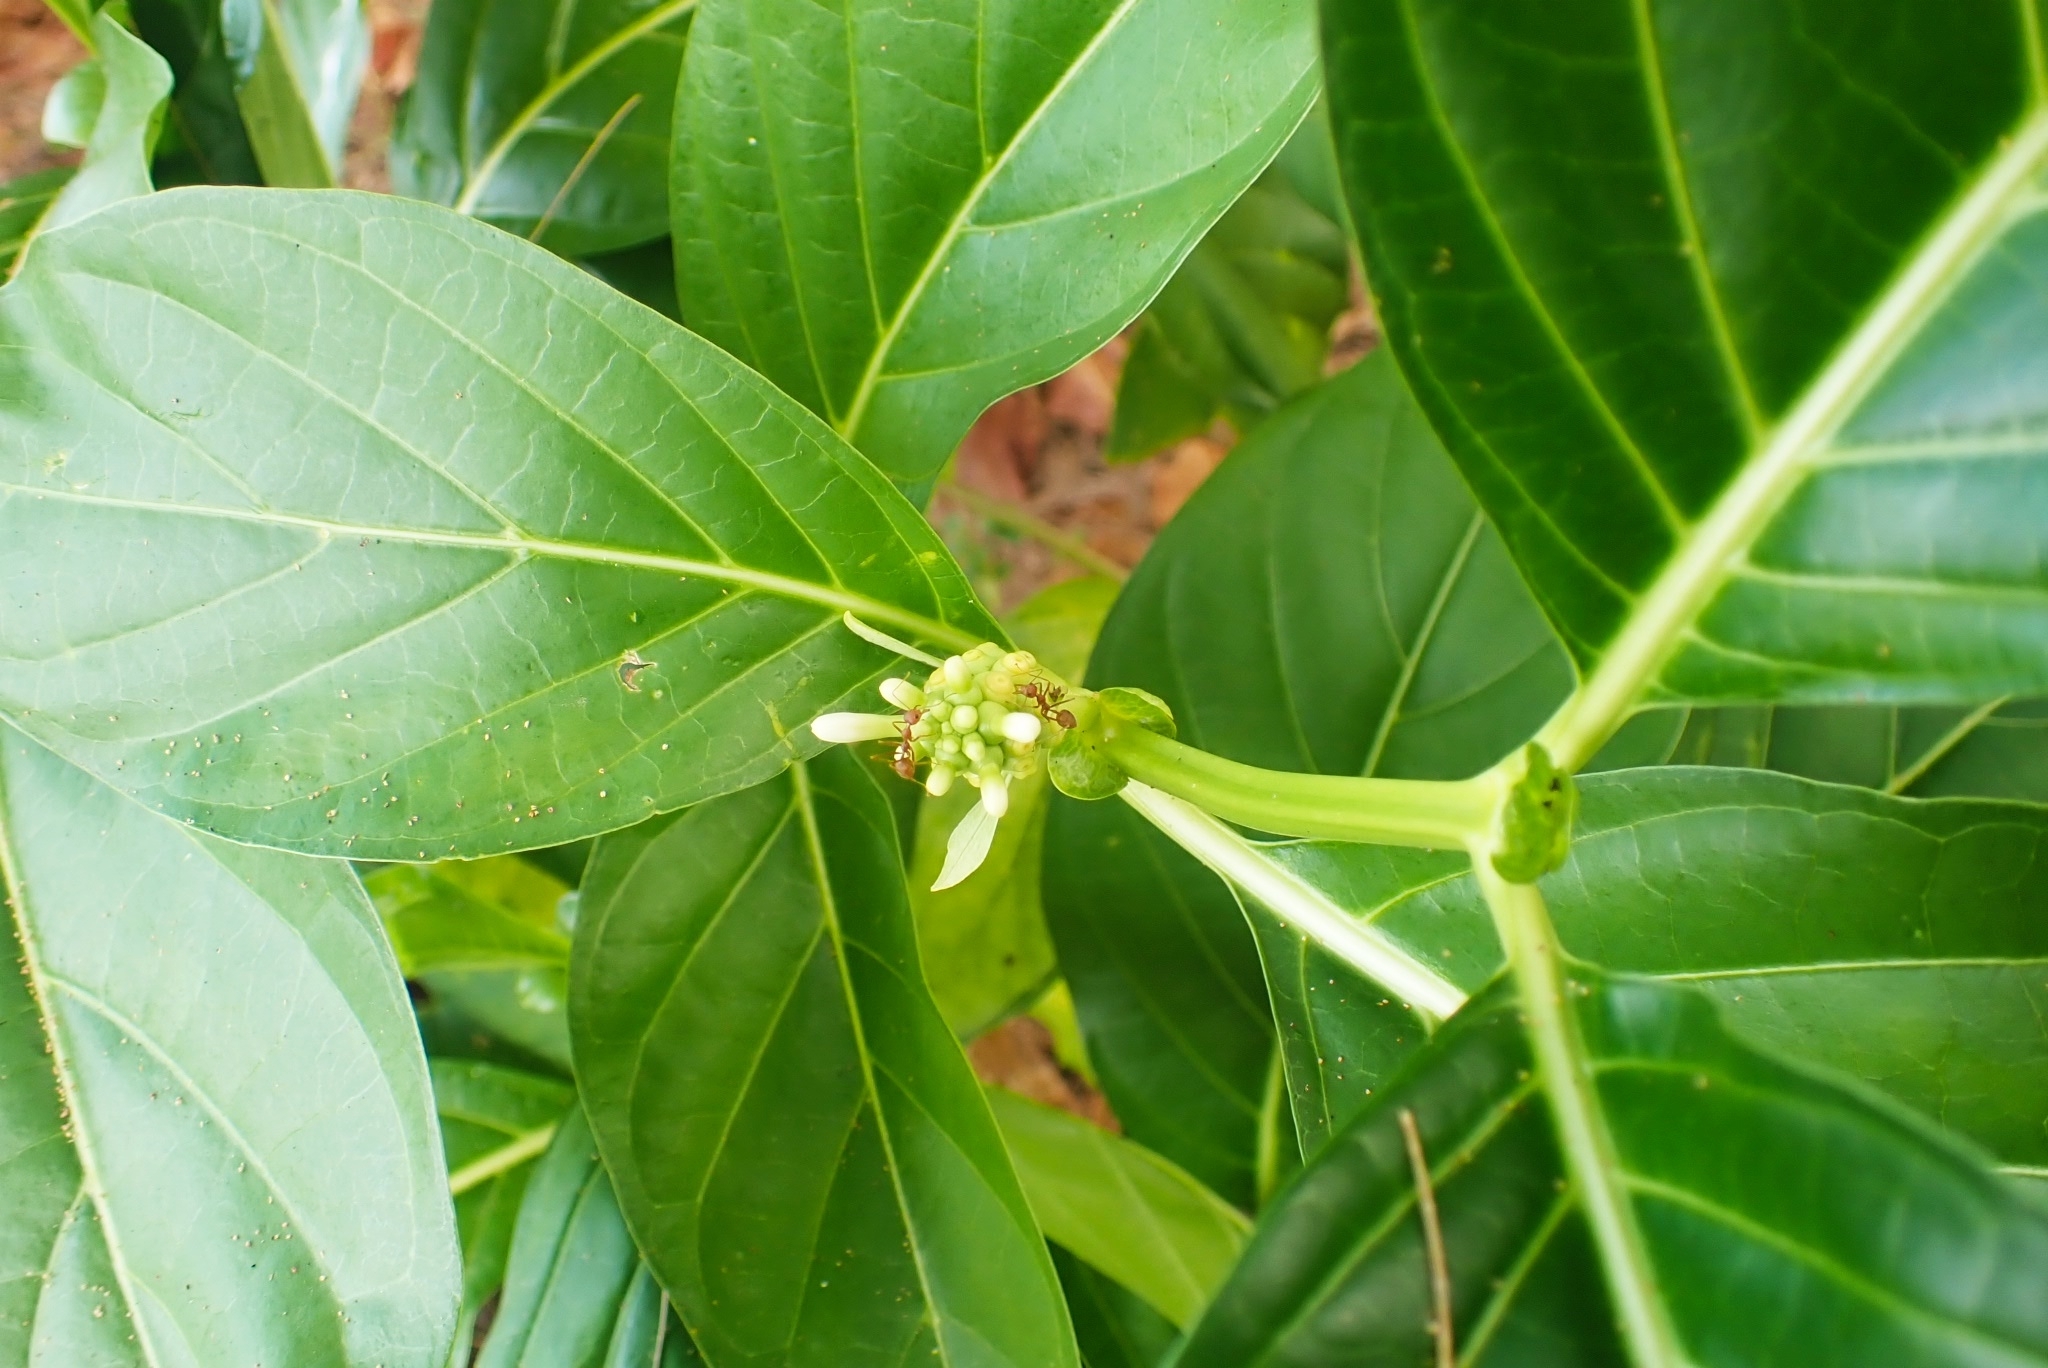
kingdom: Plantae
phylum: Tracheophyta
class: Magnoliopsida
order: Gentianales
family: Rubiaceae
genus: Morinda
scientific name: Morinda citrifolia
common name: Indian-mulberry
